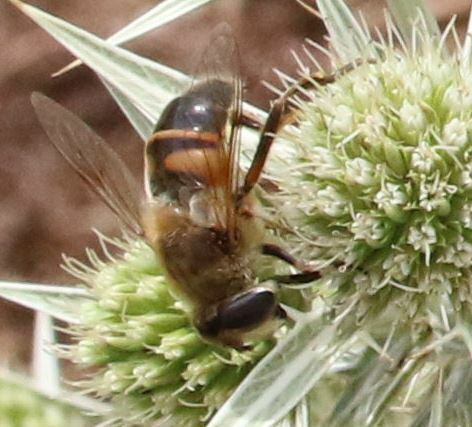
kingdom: Animalia
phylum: Arthropoda
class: Insecta
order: Diptera
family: Syrphidae
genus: Eristalis
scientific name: Eristalis tenax
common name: Drone fly
